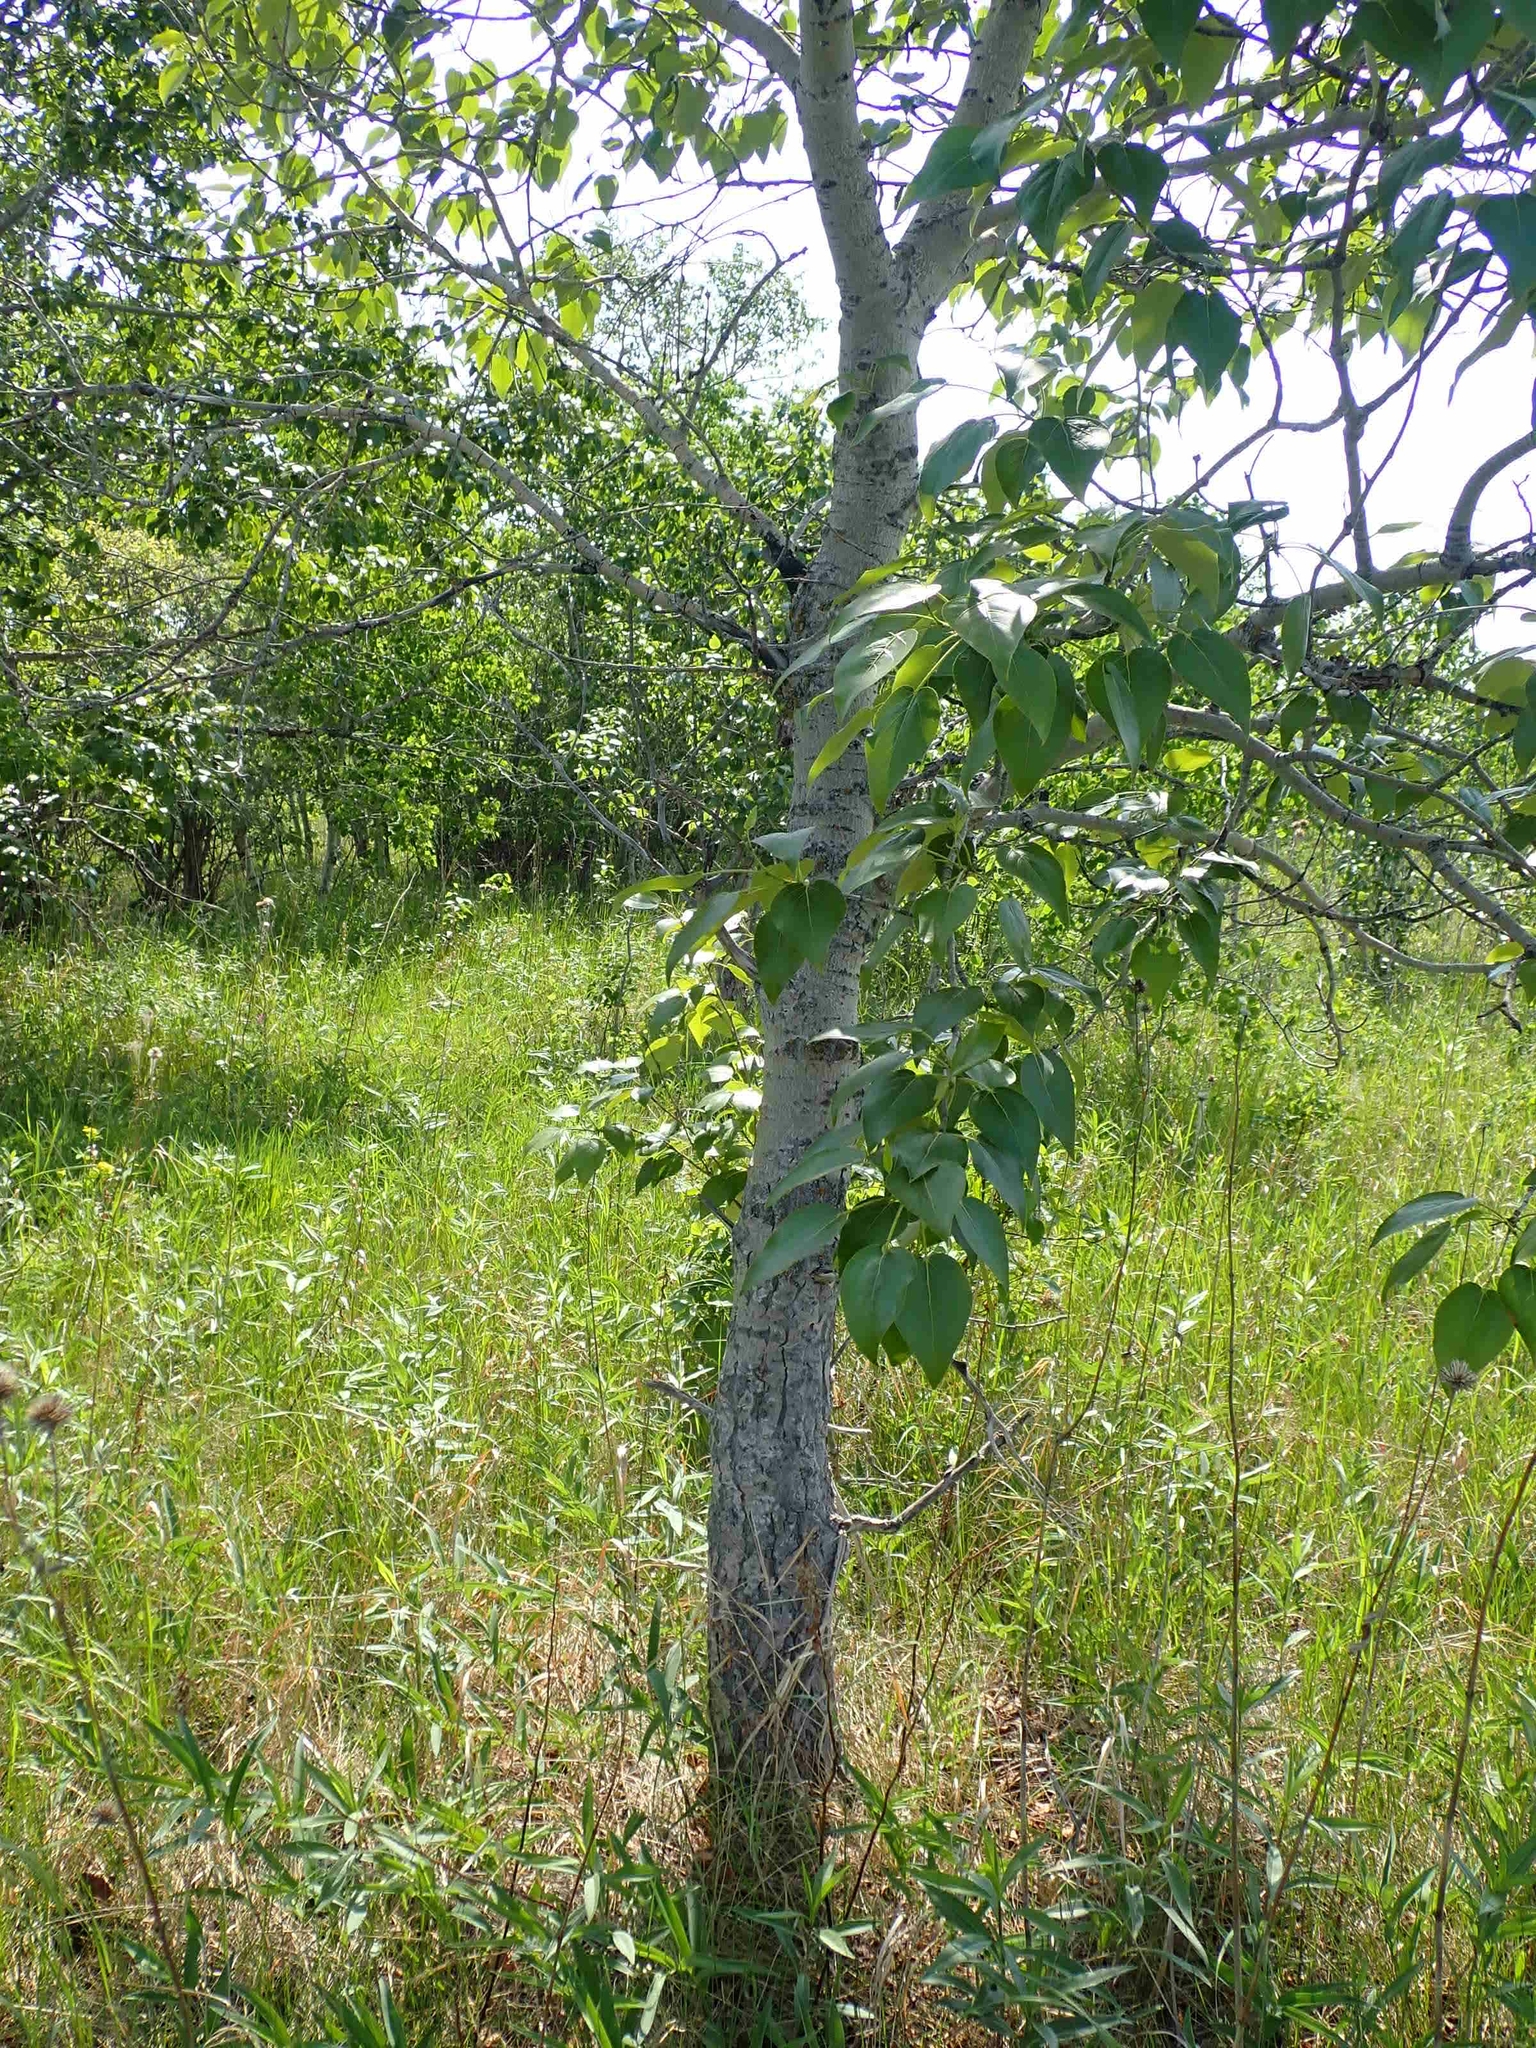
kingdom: Plantae
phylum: Tracheophyta
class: Magnoliopsida
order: Malpighiales
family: Salicaceae
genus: Populus
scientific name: Populus balsamifera
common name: Balsam poplar
